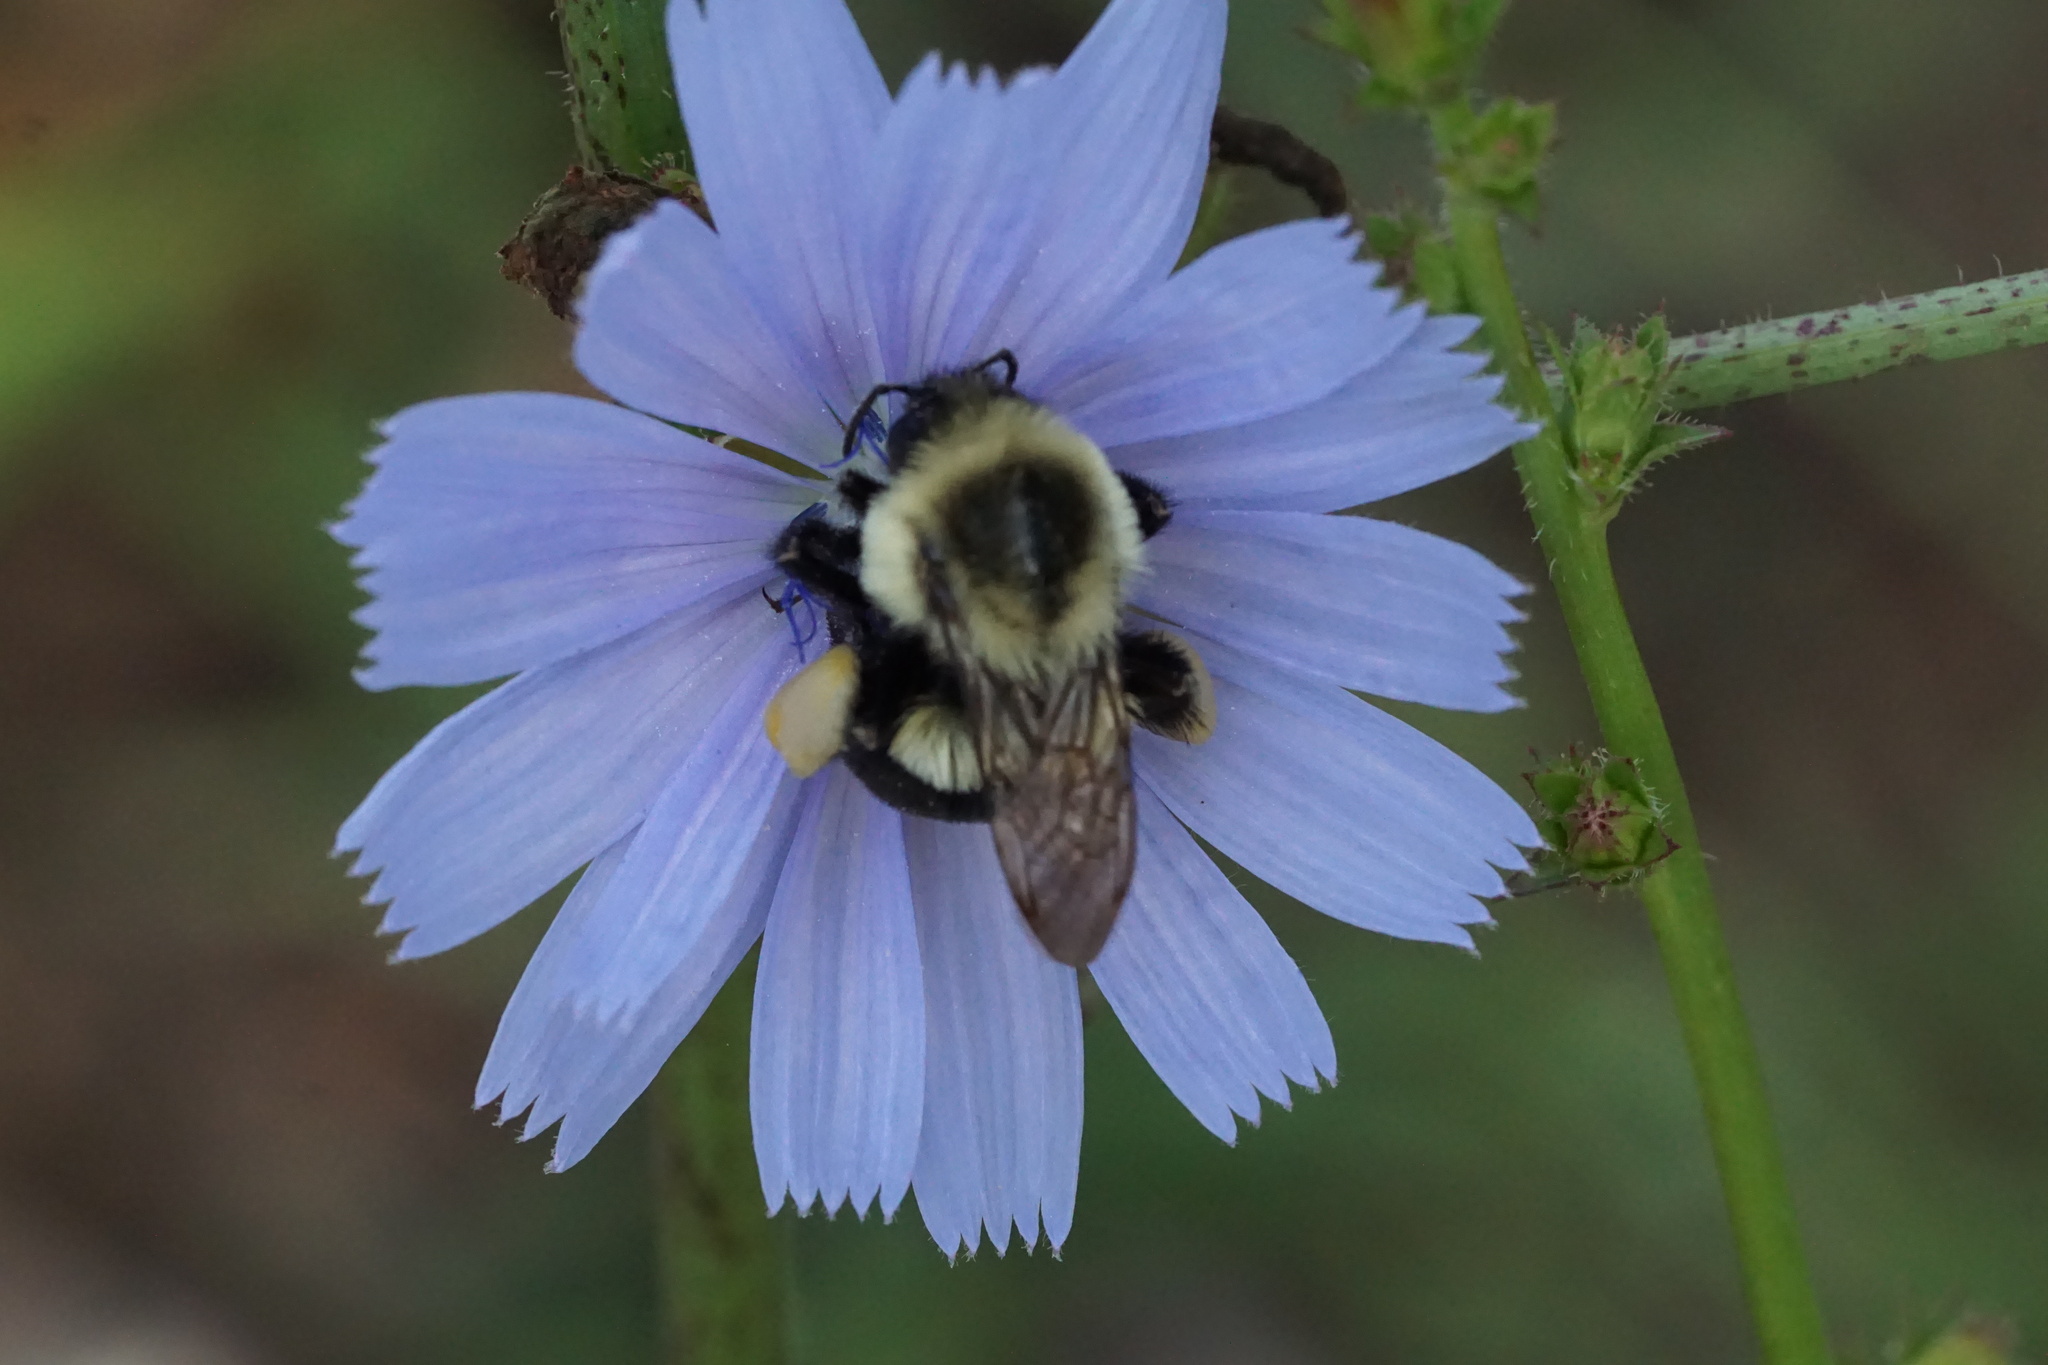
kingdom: Animalia
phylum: Arthropoda
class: Insecta
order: Hymenoptera
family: Apidae
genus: Bombus
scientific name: Bombus impatiens
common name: Common eastern bumble bee
